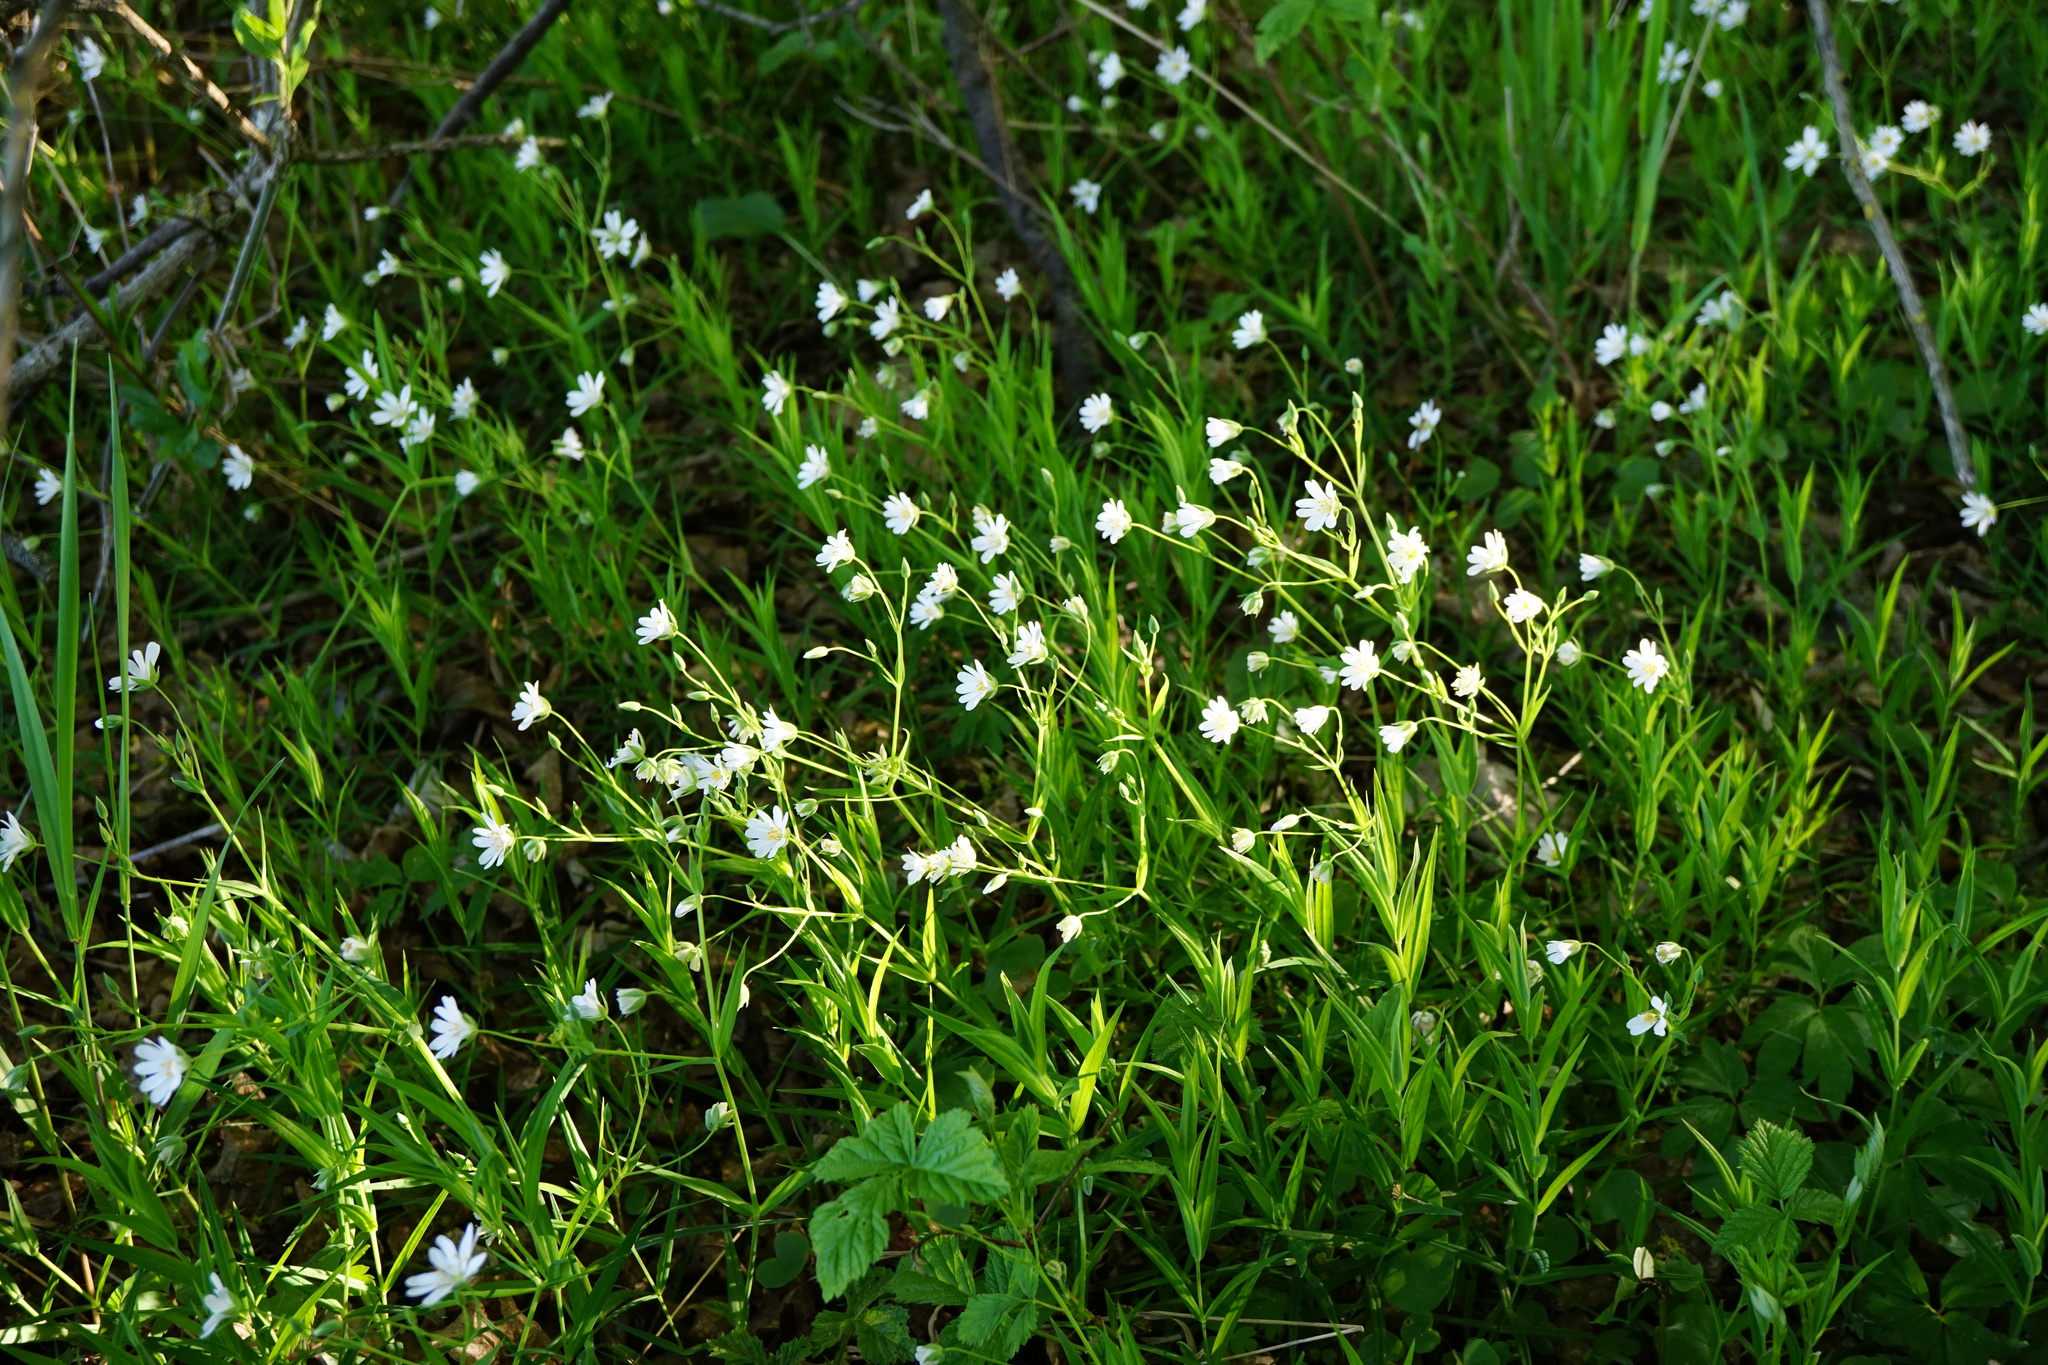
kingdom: Plantae
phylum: Tracheophyta
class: Magnoliopsida
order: Caryophyllales
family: Caryophyllaceae
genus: Rabelera
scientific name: Rabelera holostea
